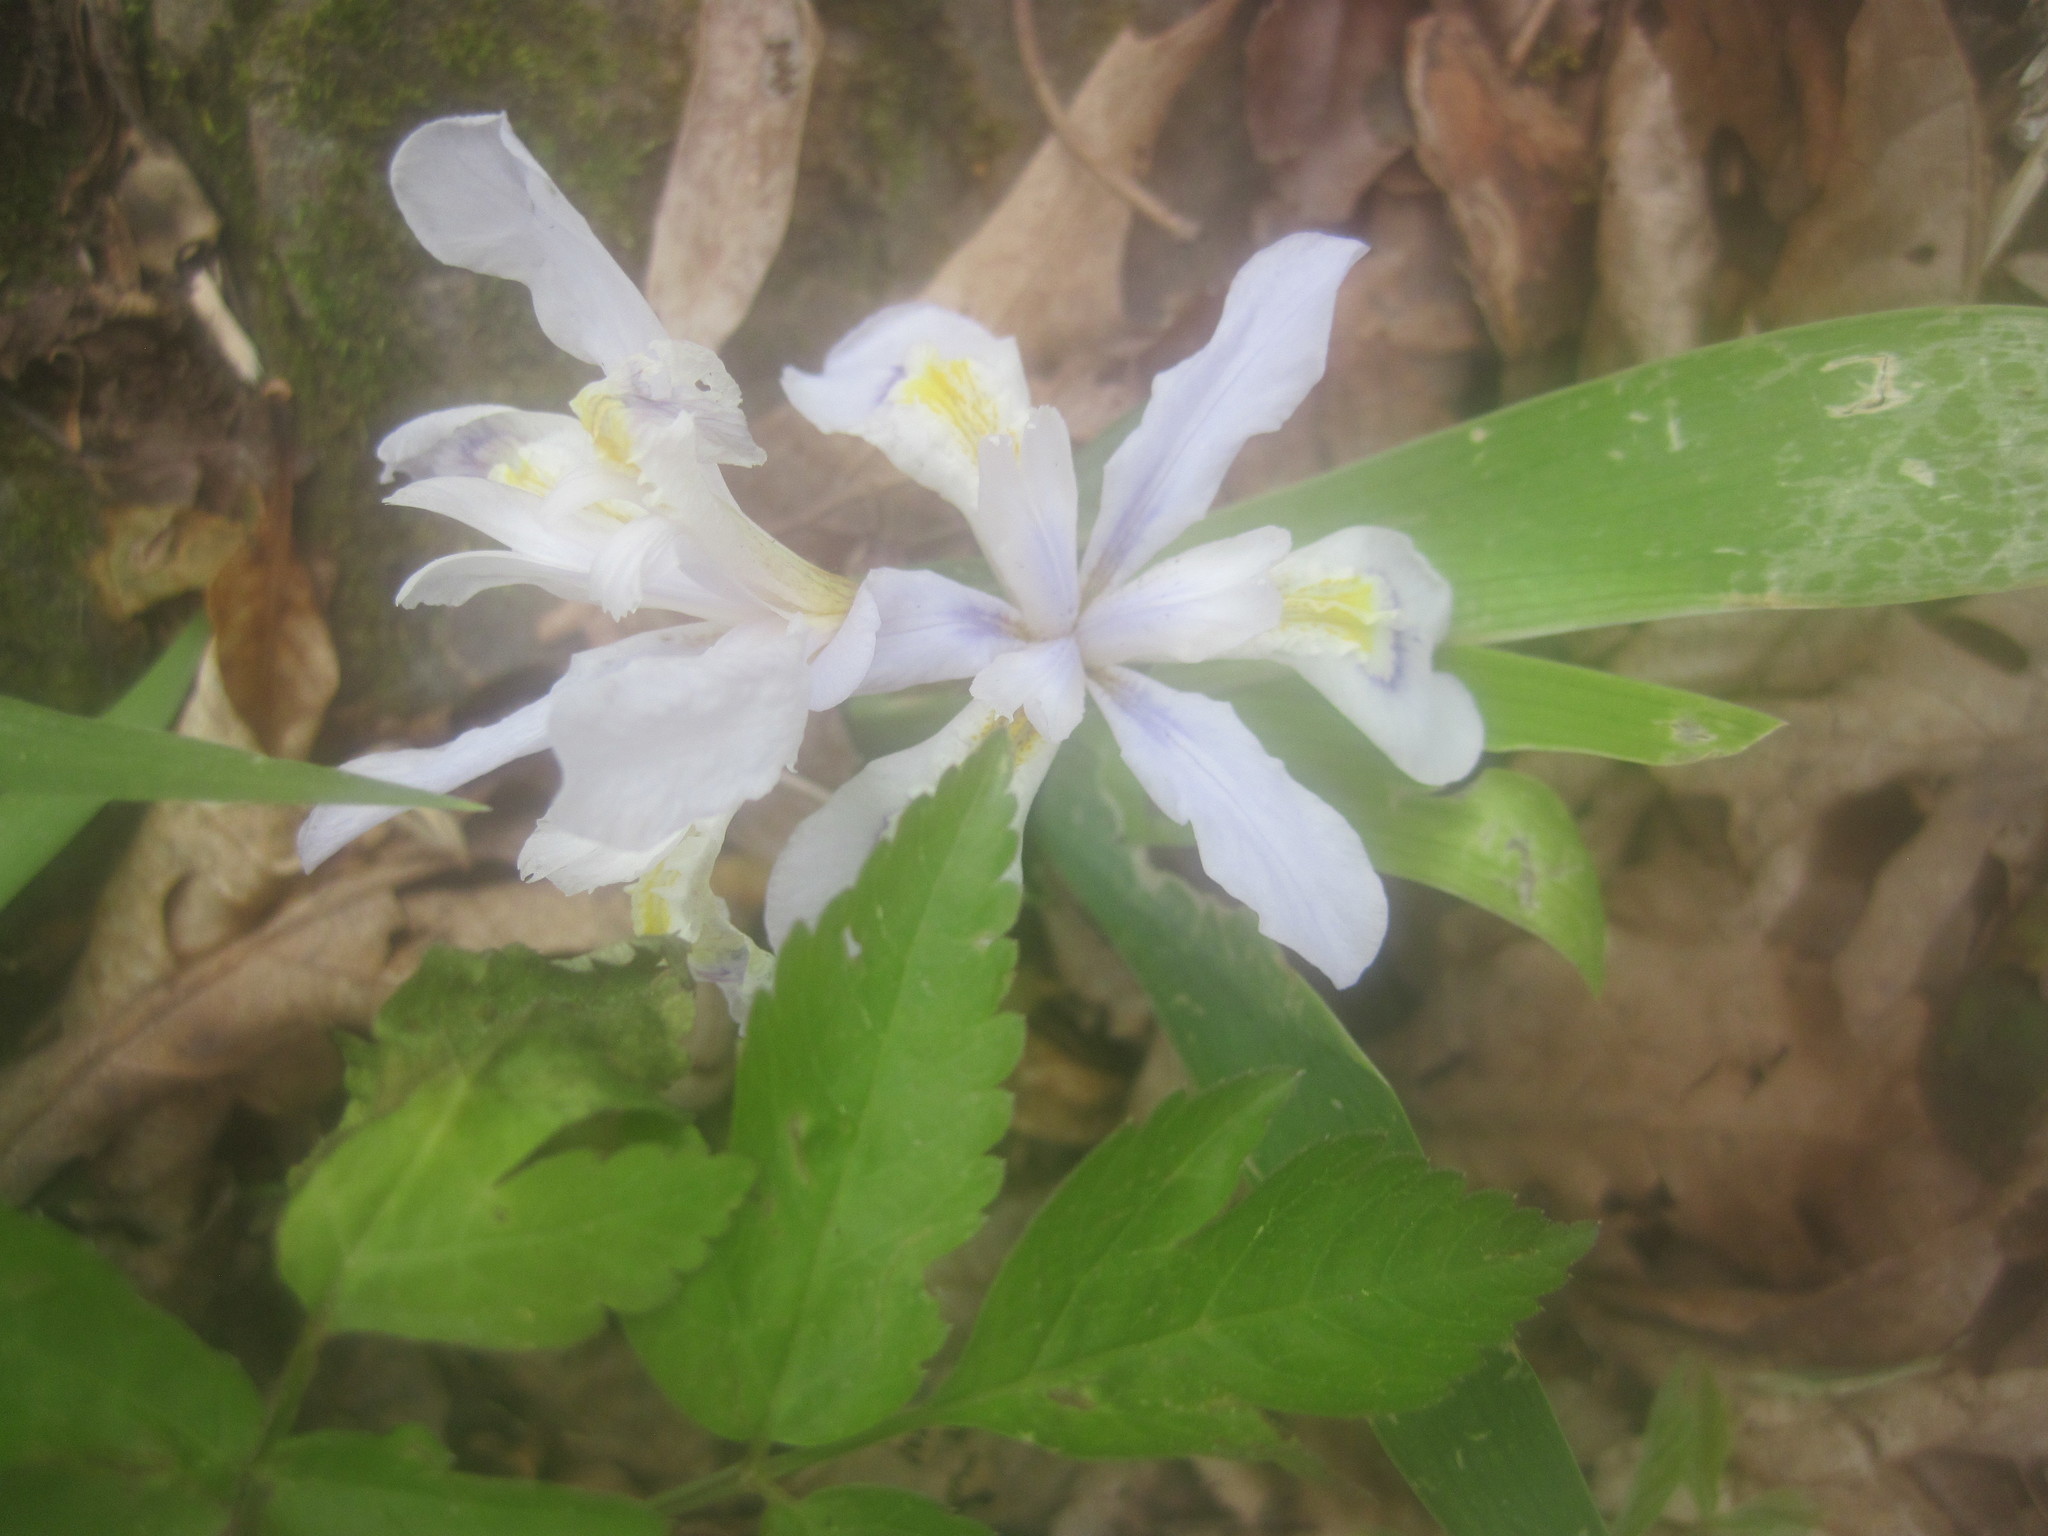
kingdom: Plantae
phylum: Tracheophyta
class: Liliopsida
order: Asparagales
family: Iridaceae
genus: Iris
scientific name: Iris cristata
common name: Crested iris
